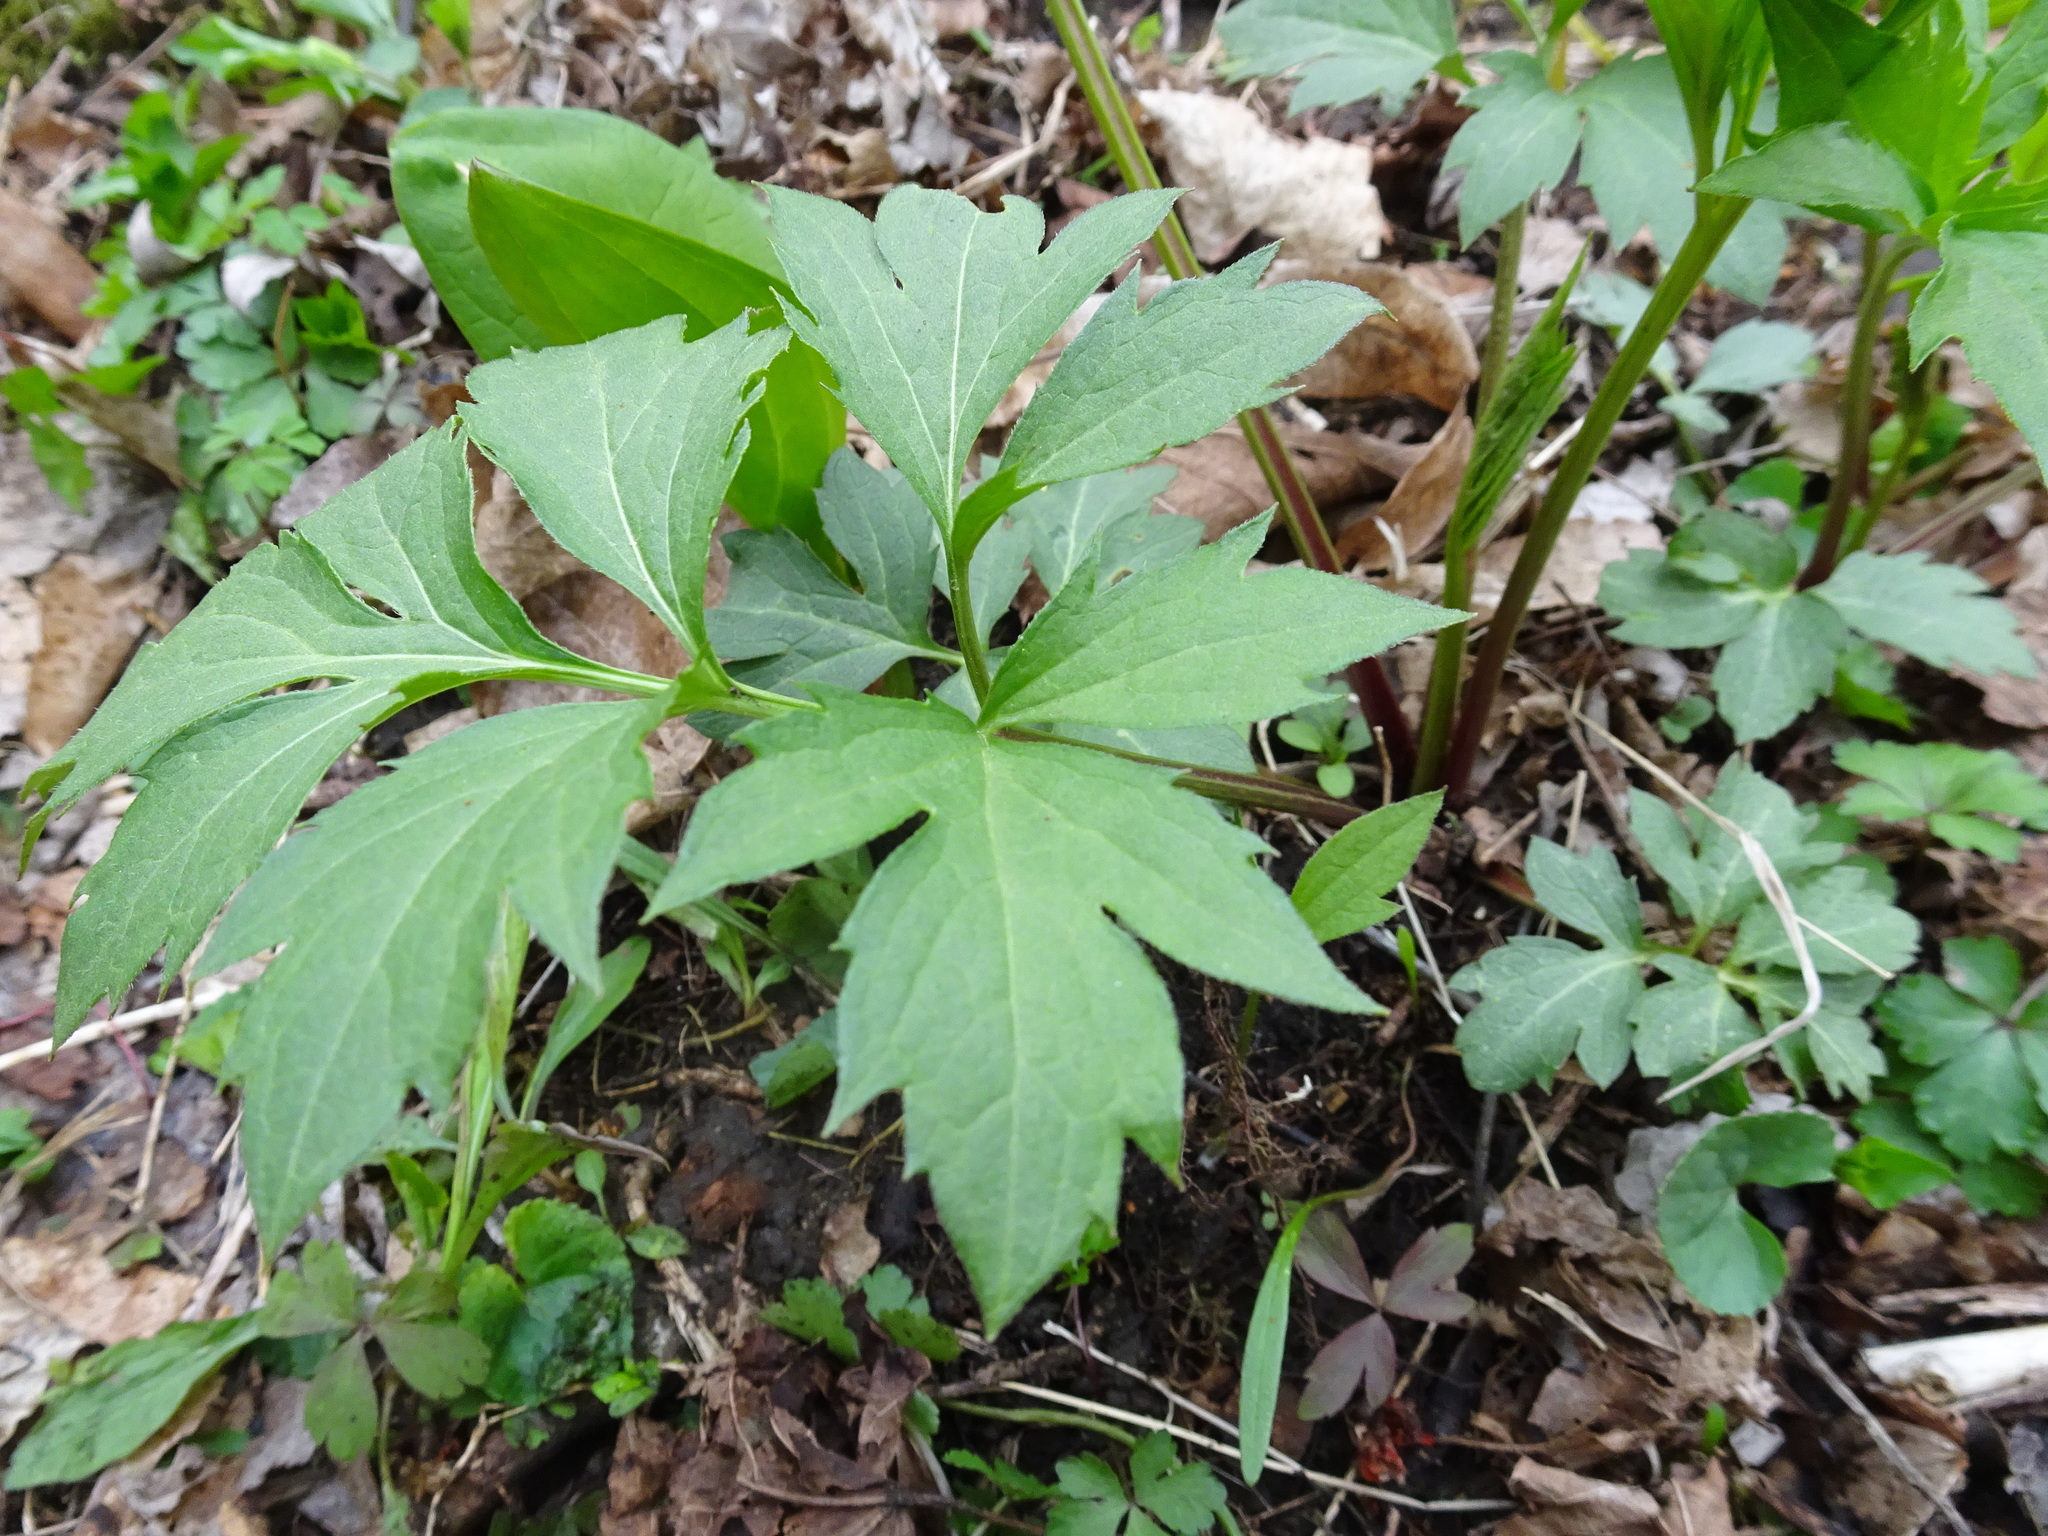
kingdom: Plantae
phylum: Tracheophyta
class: Magnoliopsida
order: Asterales
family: Asteraceae
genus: Rudbeckia
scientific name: Rudbeckia laciniata
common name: Coneflower
